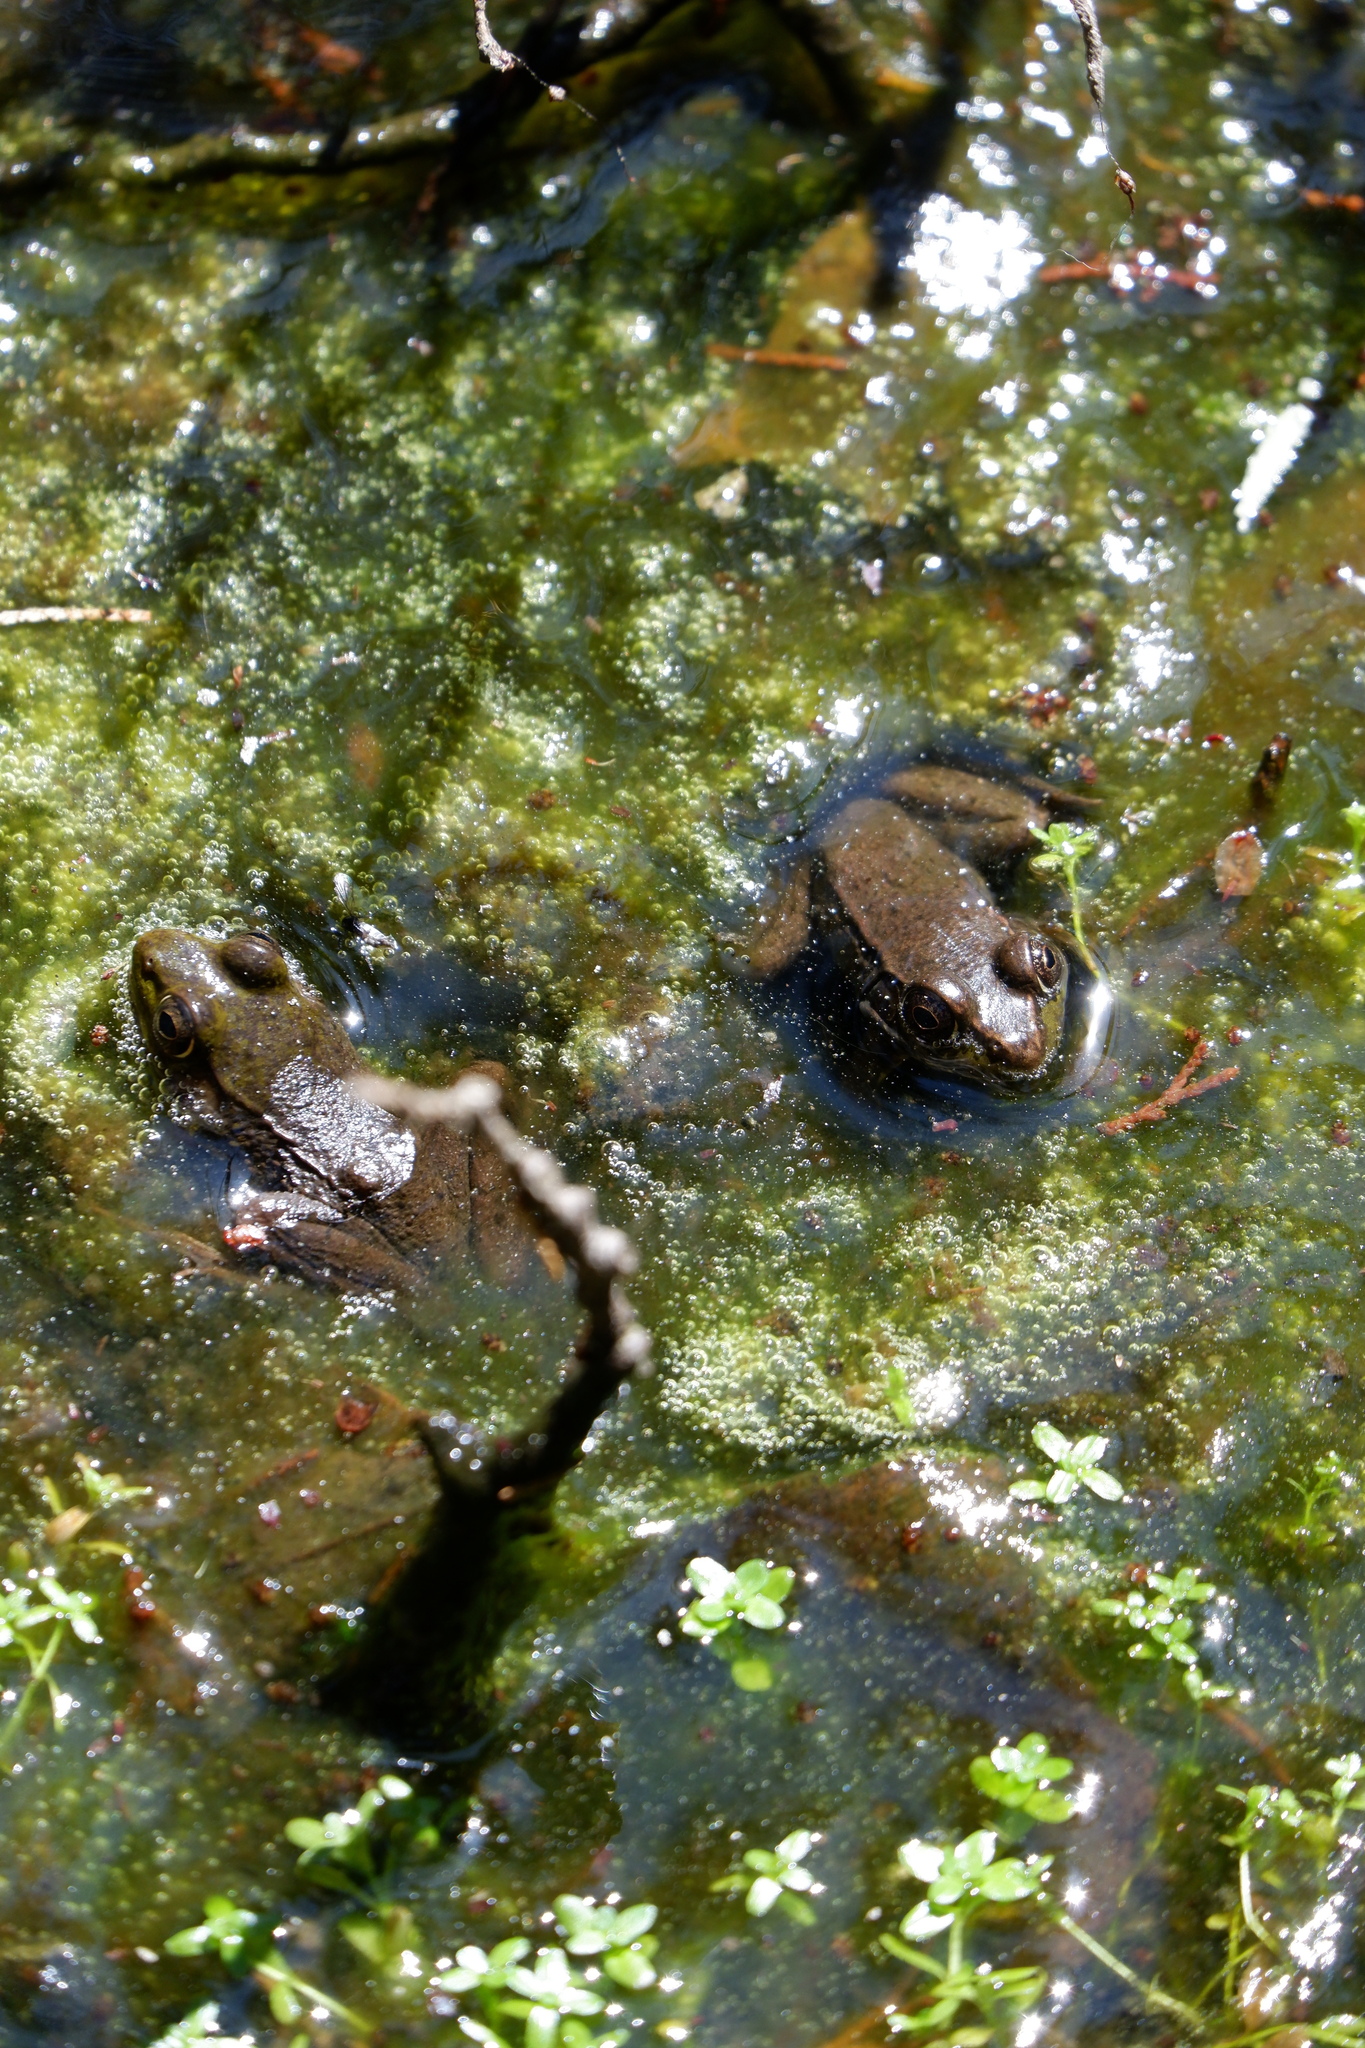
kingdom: Animalia
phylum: Chordata
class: Amphibia
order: Anura
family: Ranidae
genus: Lithobates
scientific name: Lithobates clamitans
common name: Green frog
